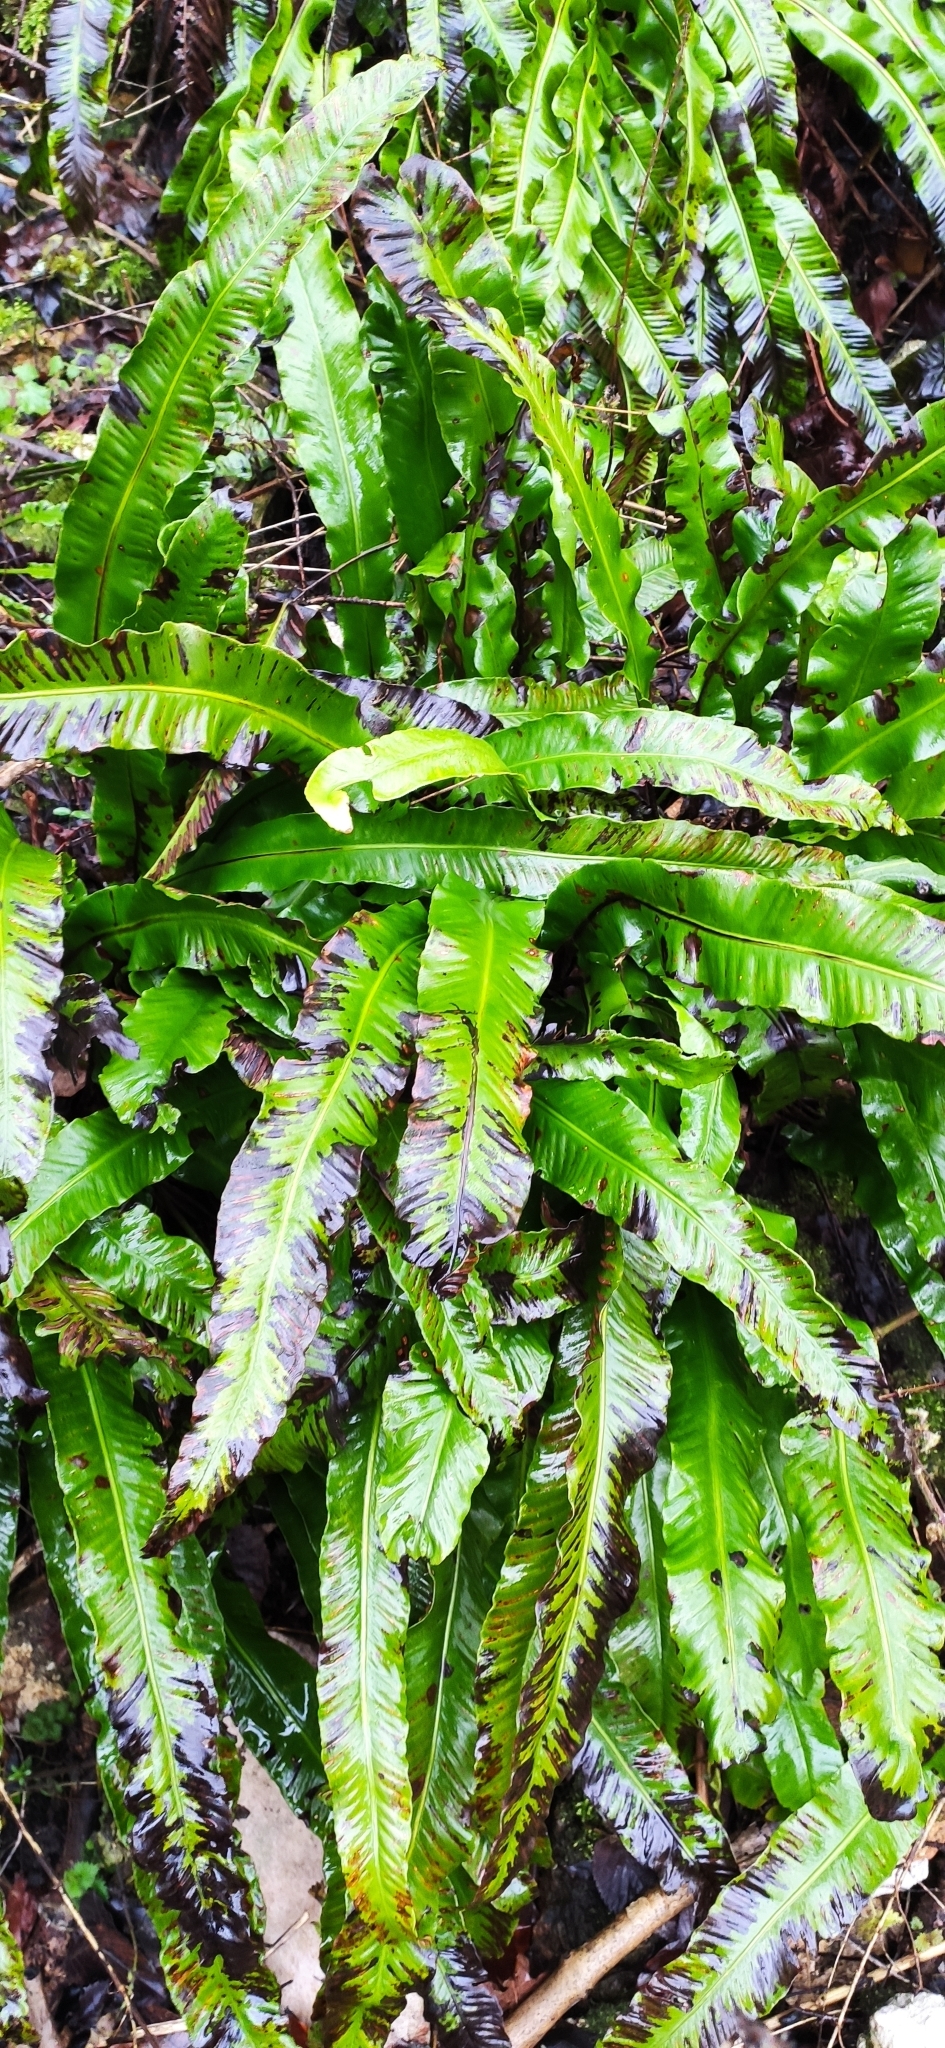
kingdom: Plantae
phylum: Tracheophyta
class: Polypodiopsida
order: Polypodiales
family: Aspleniaceae
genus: Asplenium
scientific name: Asplenium scolopendrium
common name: Hart's-tongue fern
